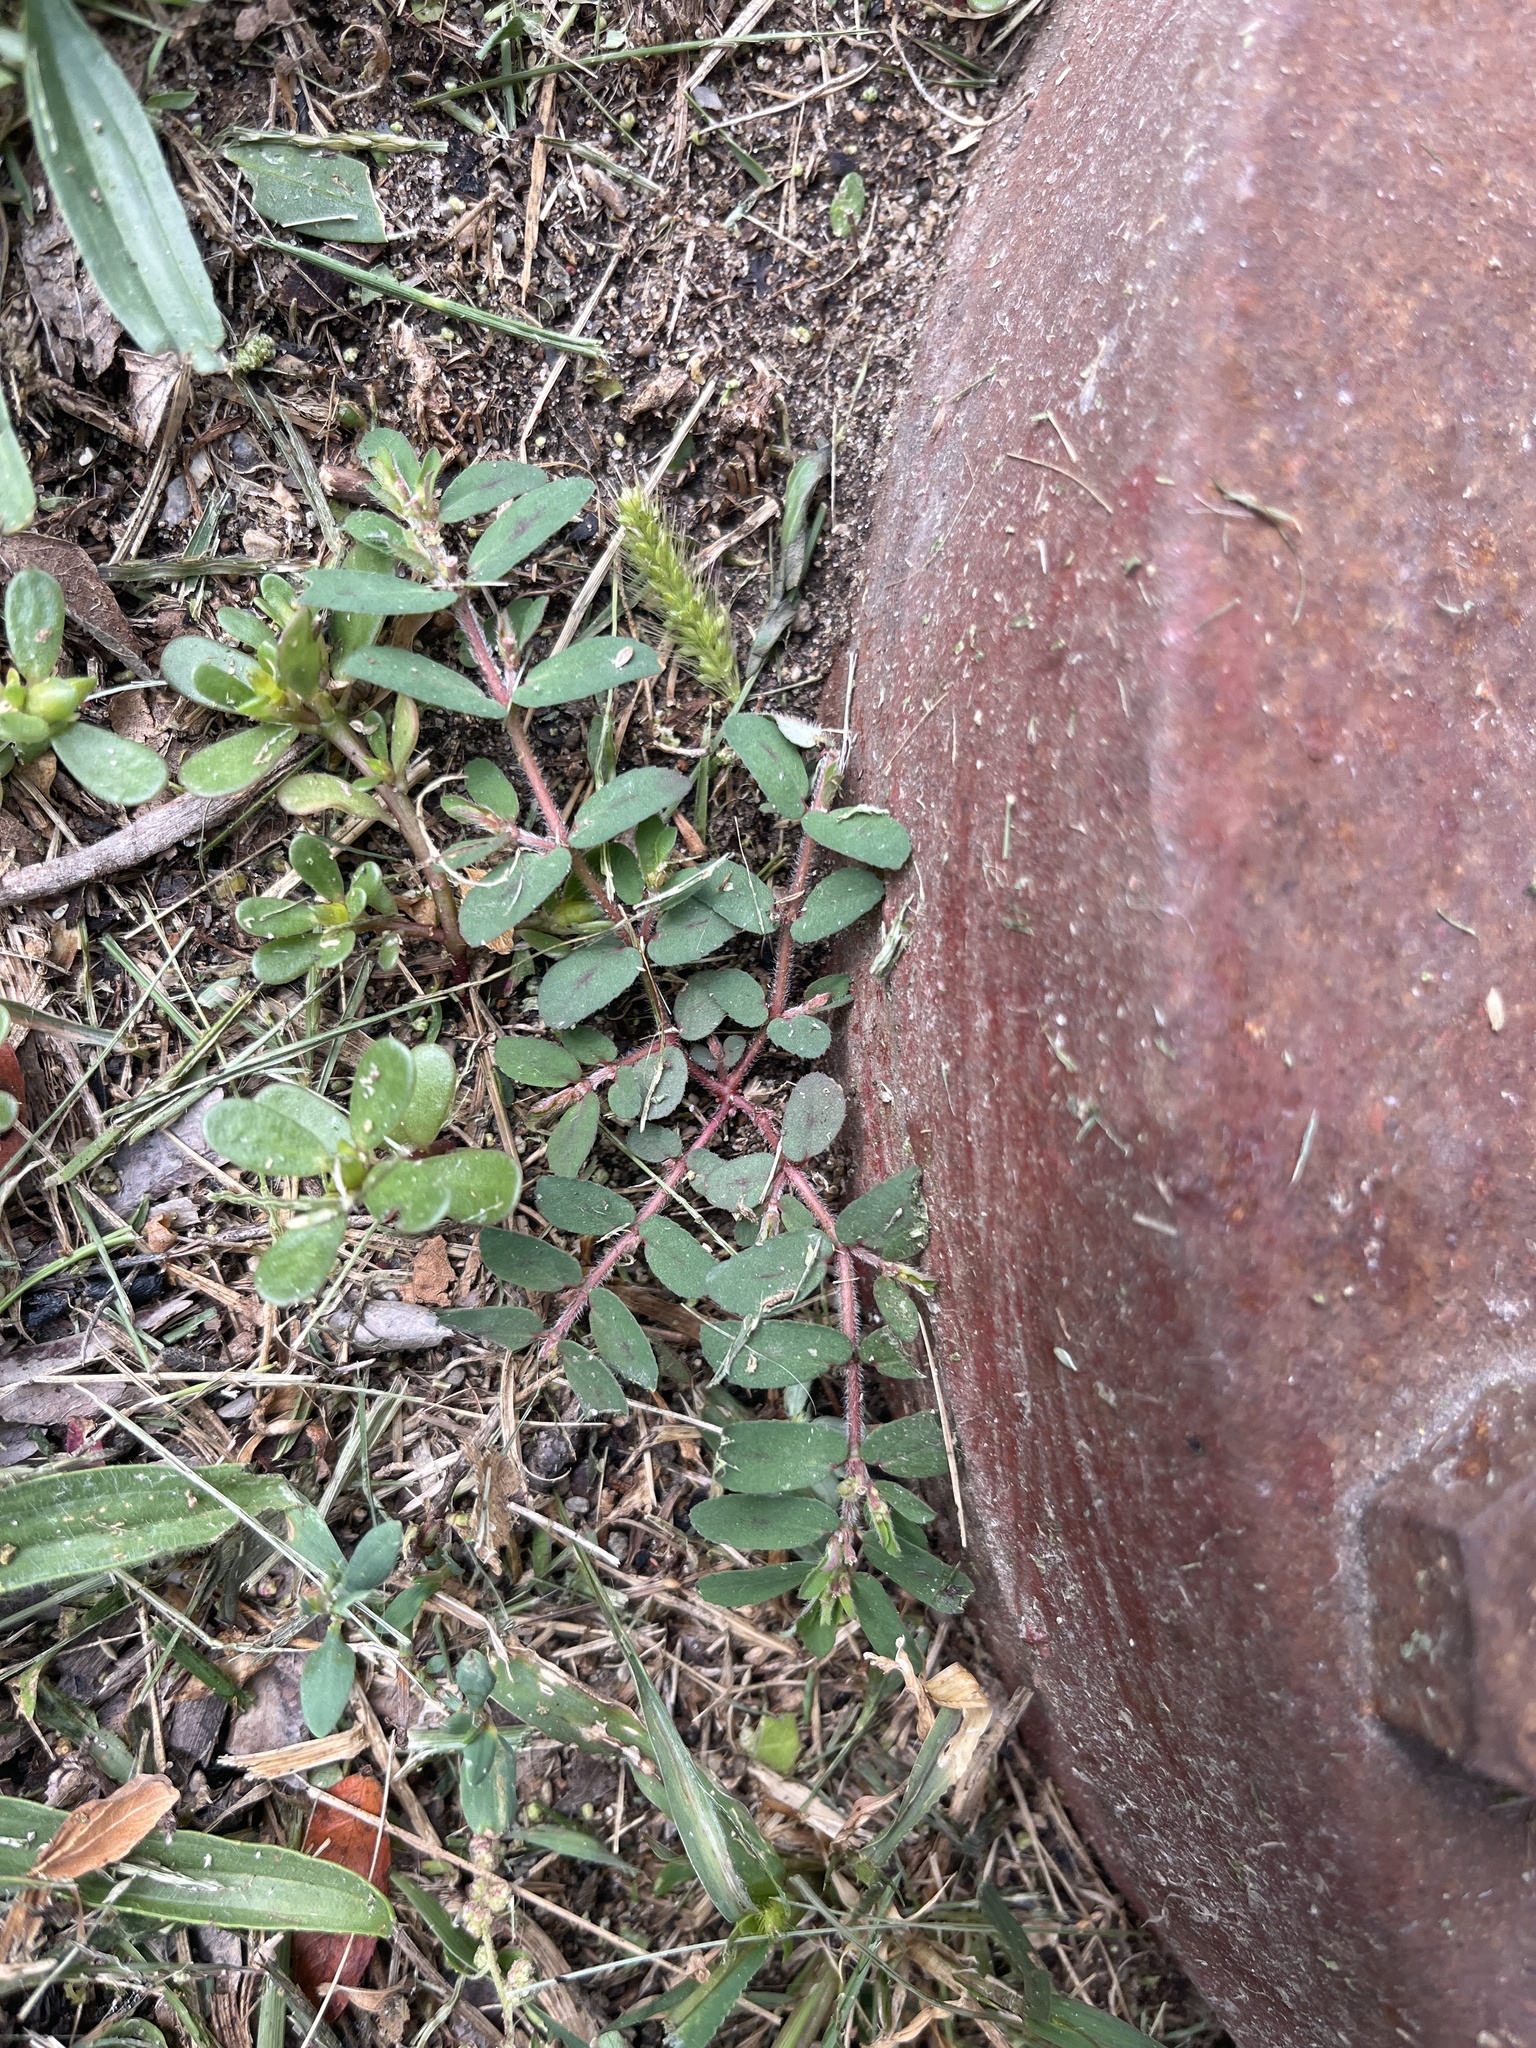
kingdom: Plantae
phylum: Tracheophyta
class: Magnoliopsida
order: Malpighiales
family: Euphorbiaceae
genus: Euphorbia
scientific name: Euphorbia maculata
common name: Spotted spurge
